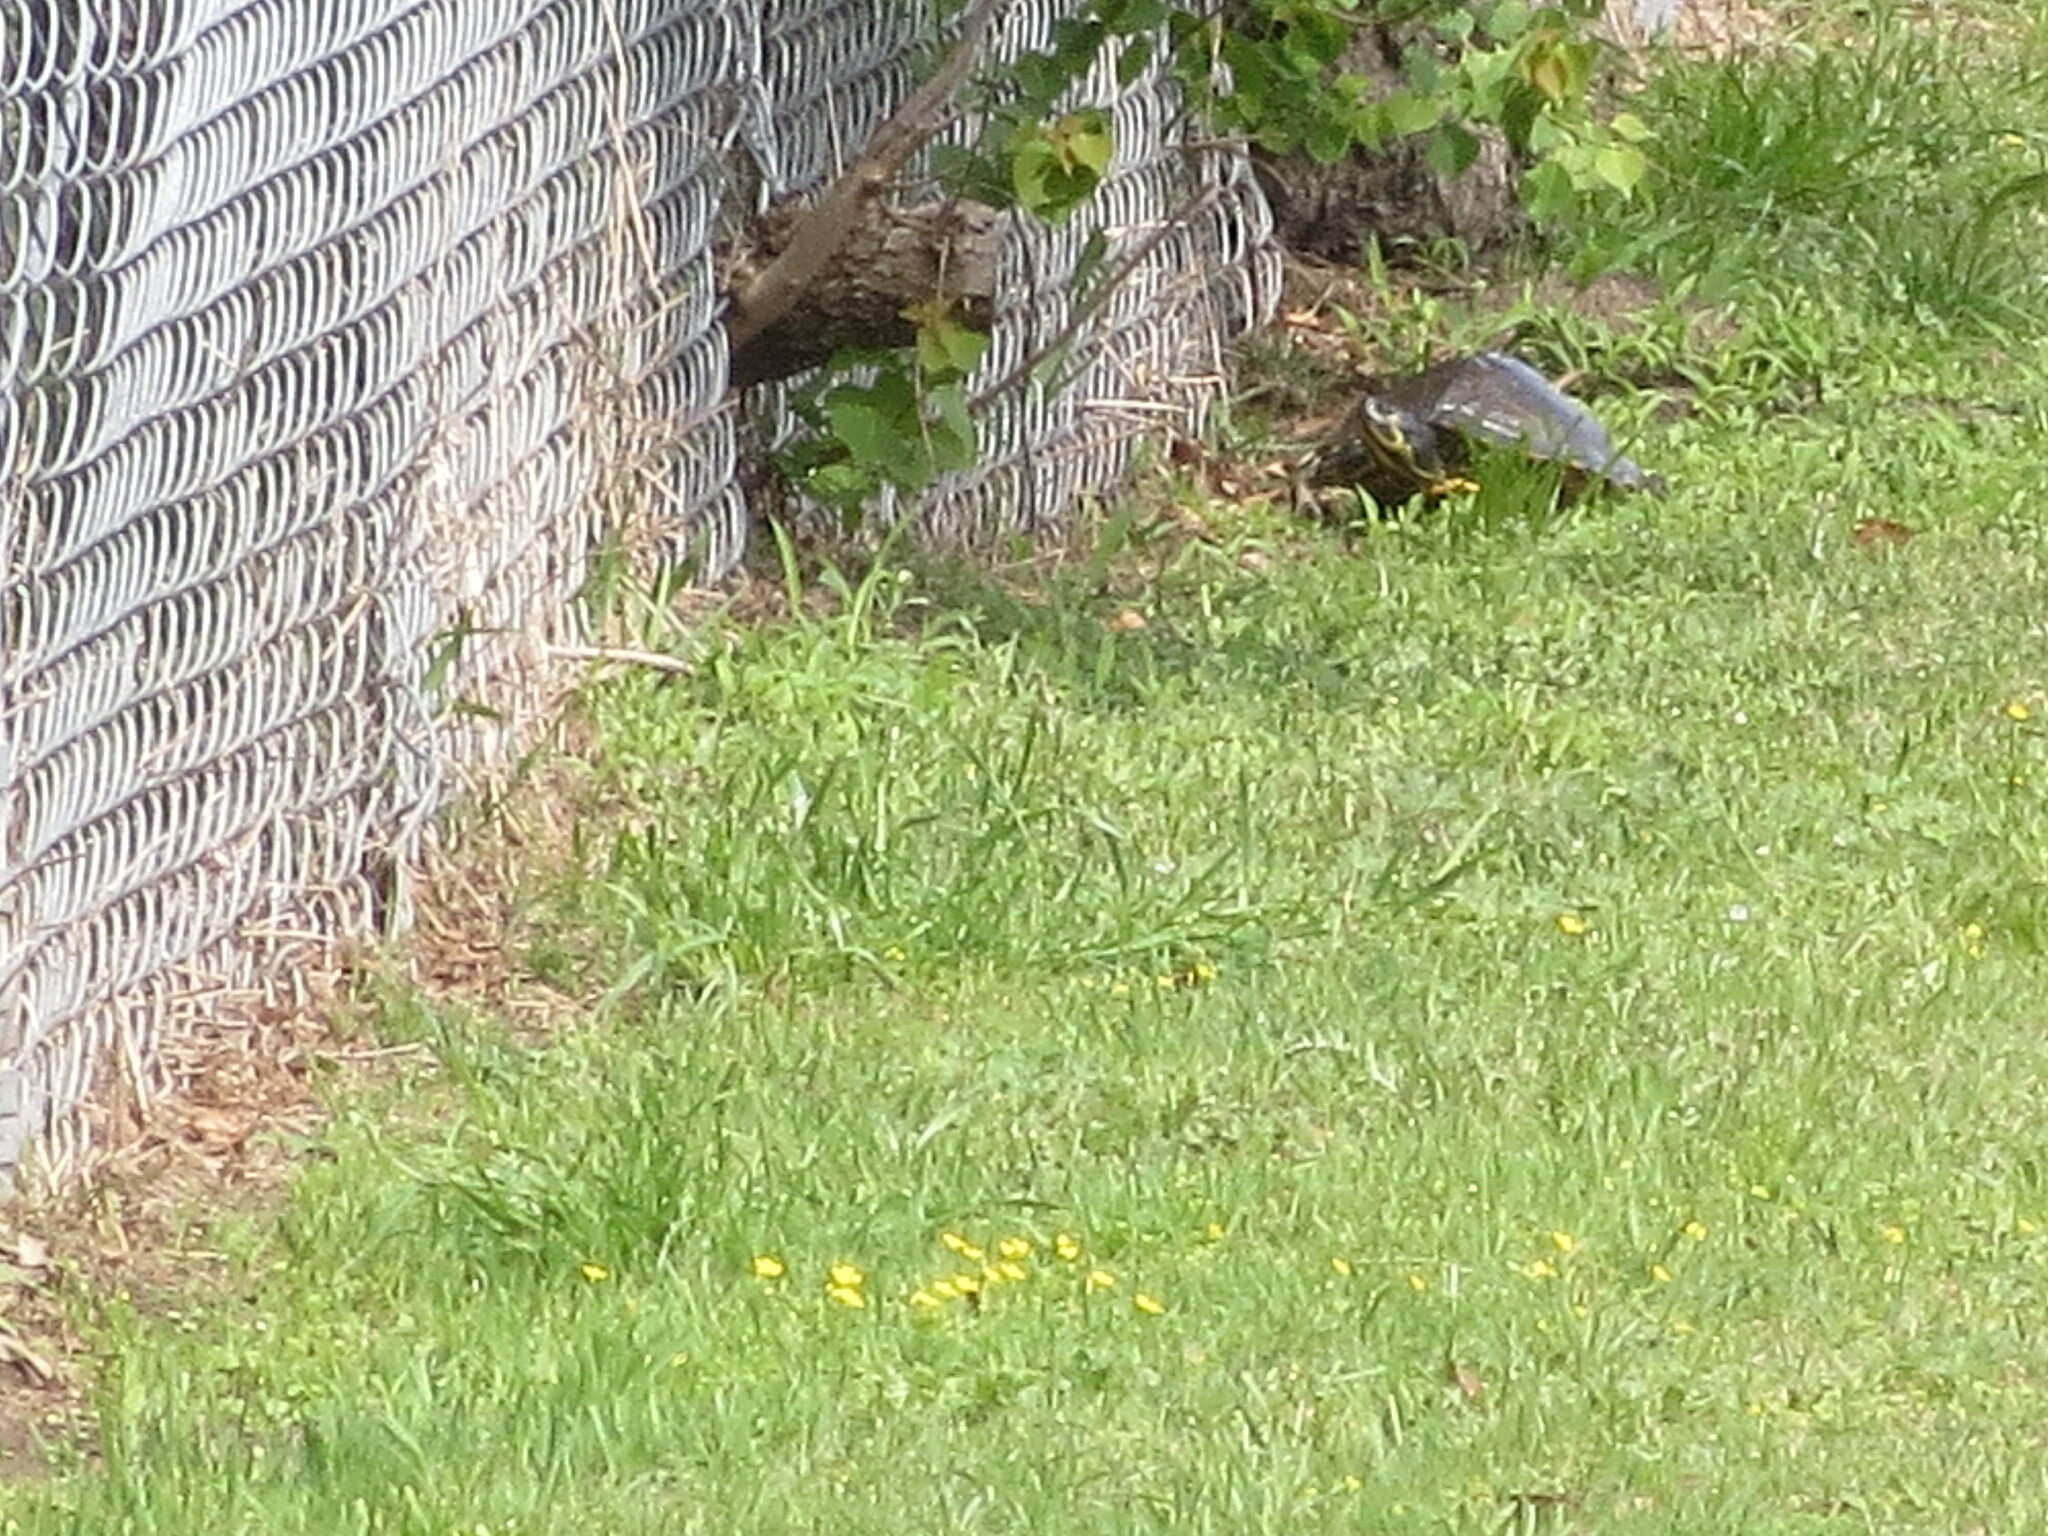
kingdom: Animalia
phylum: Chordata
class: Aves
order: Accipitriformes
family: Accipitridae
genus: Buteo
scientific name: Buteo lineatus
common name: Red-shouldered hawk
